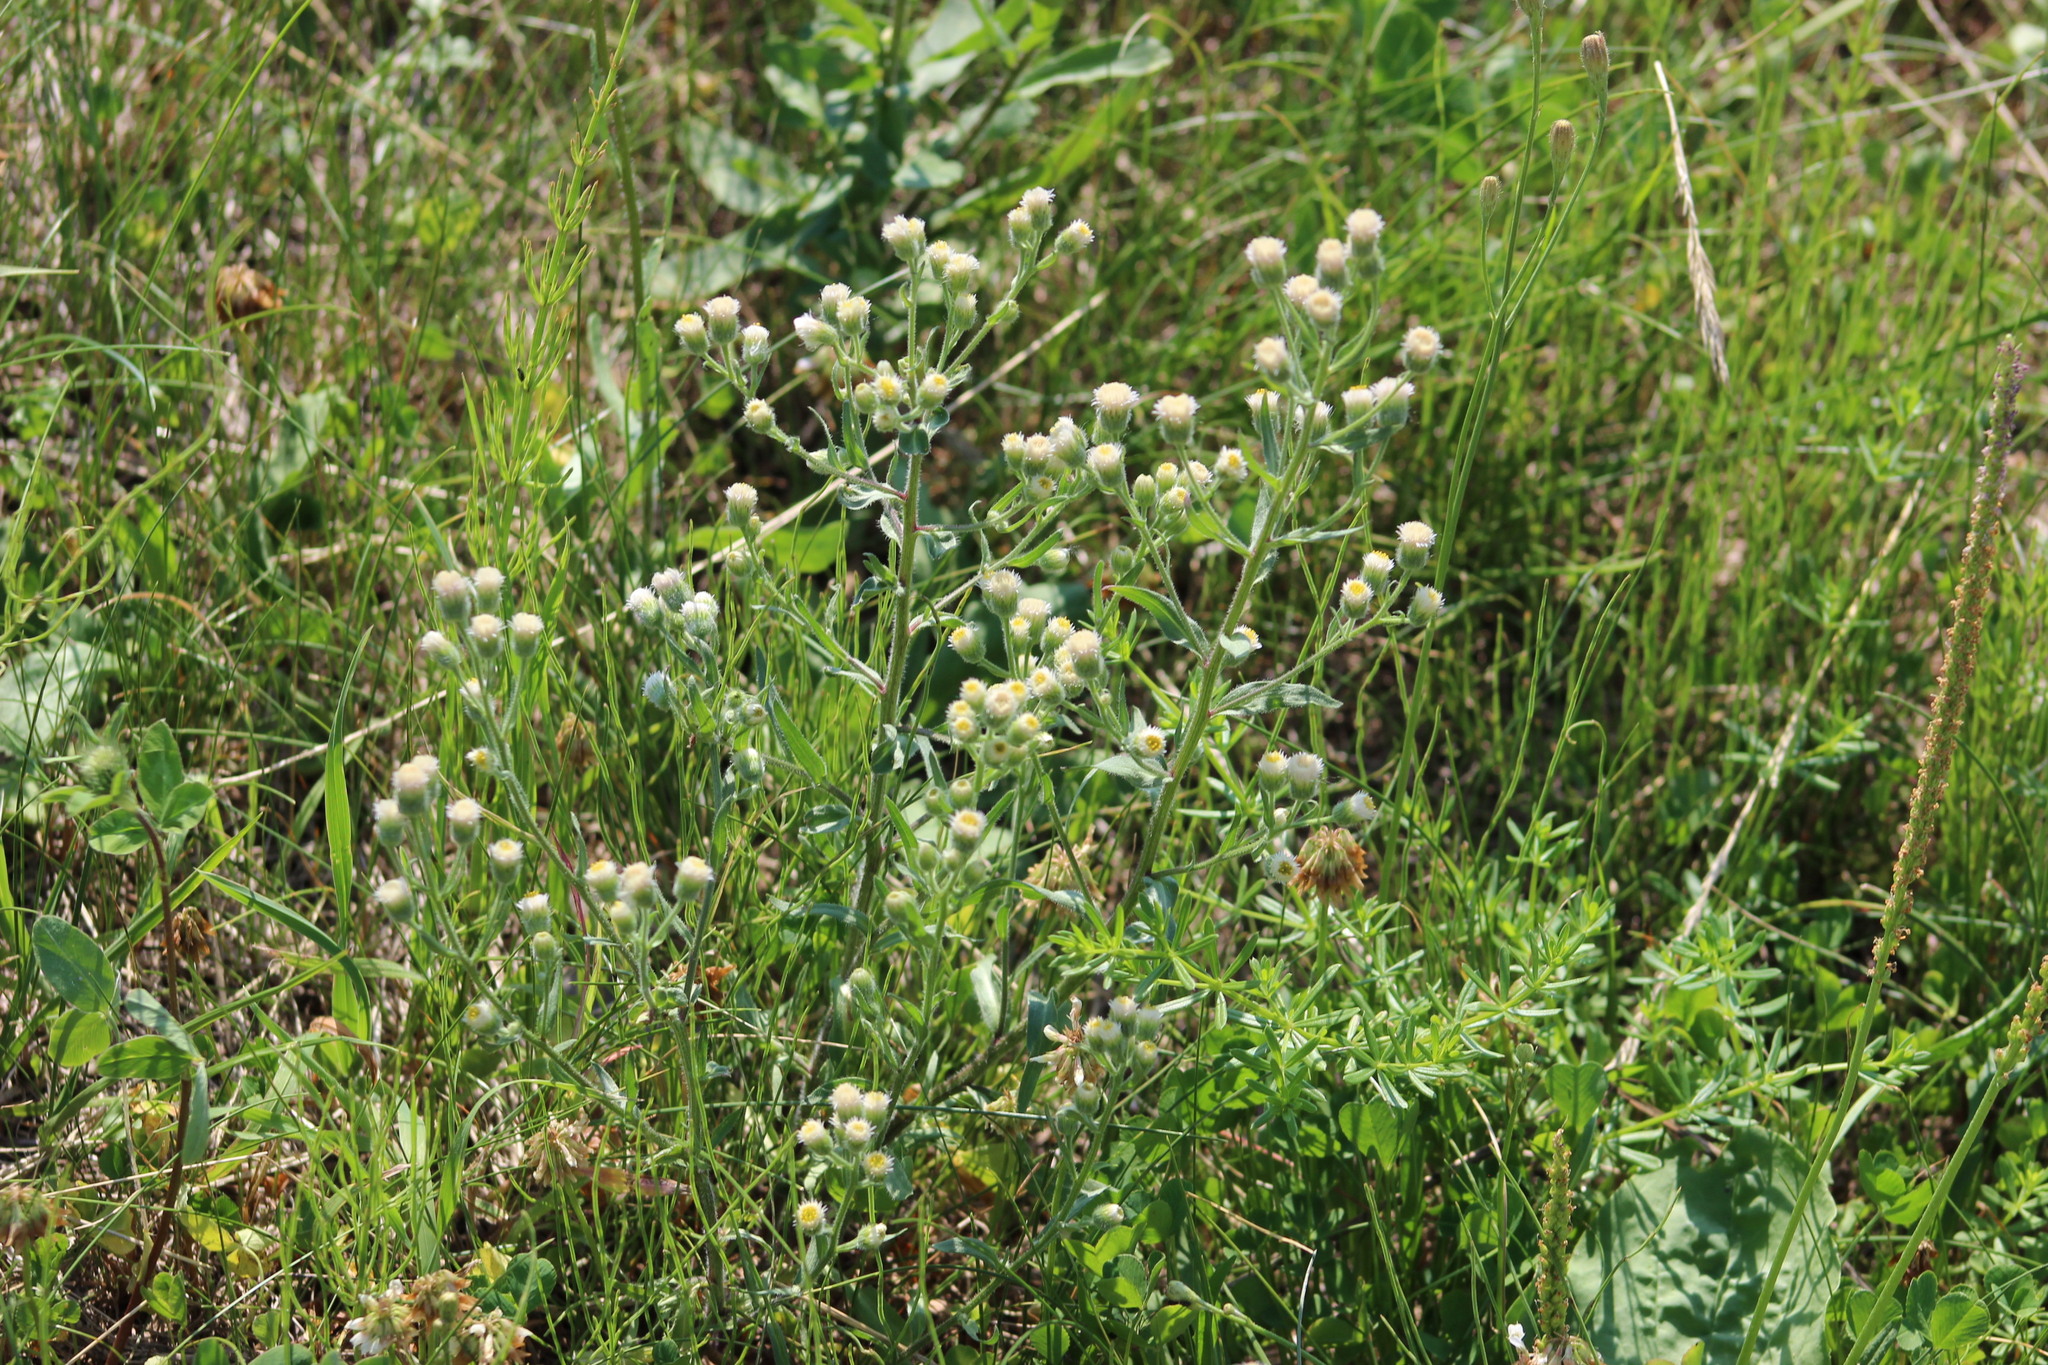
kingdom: Plantae
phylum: Tracheophyta
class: Magnoliopsida
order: Asterales
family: Asteraceae
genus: Erigeron
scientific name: Erigeron acris
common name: Blue fleabane
